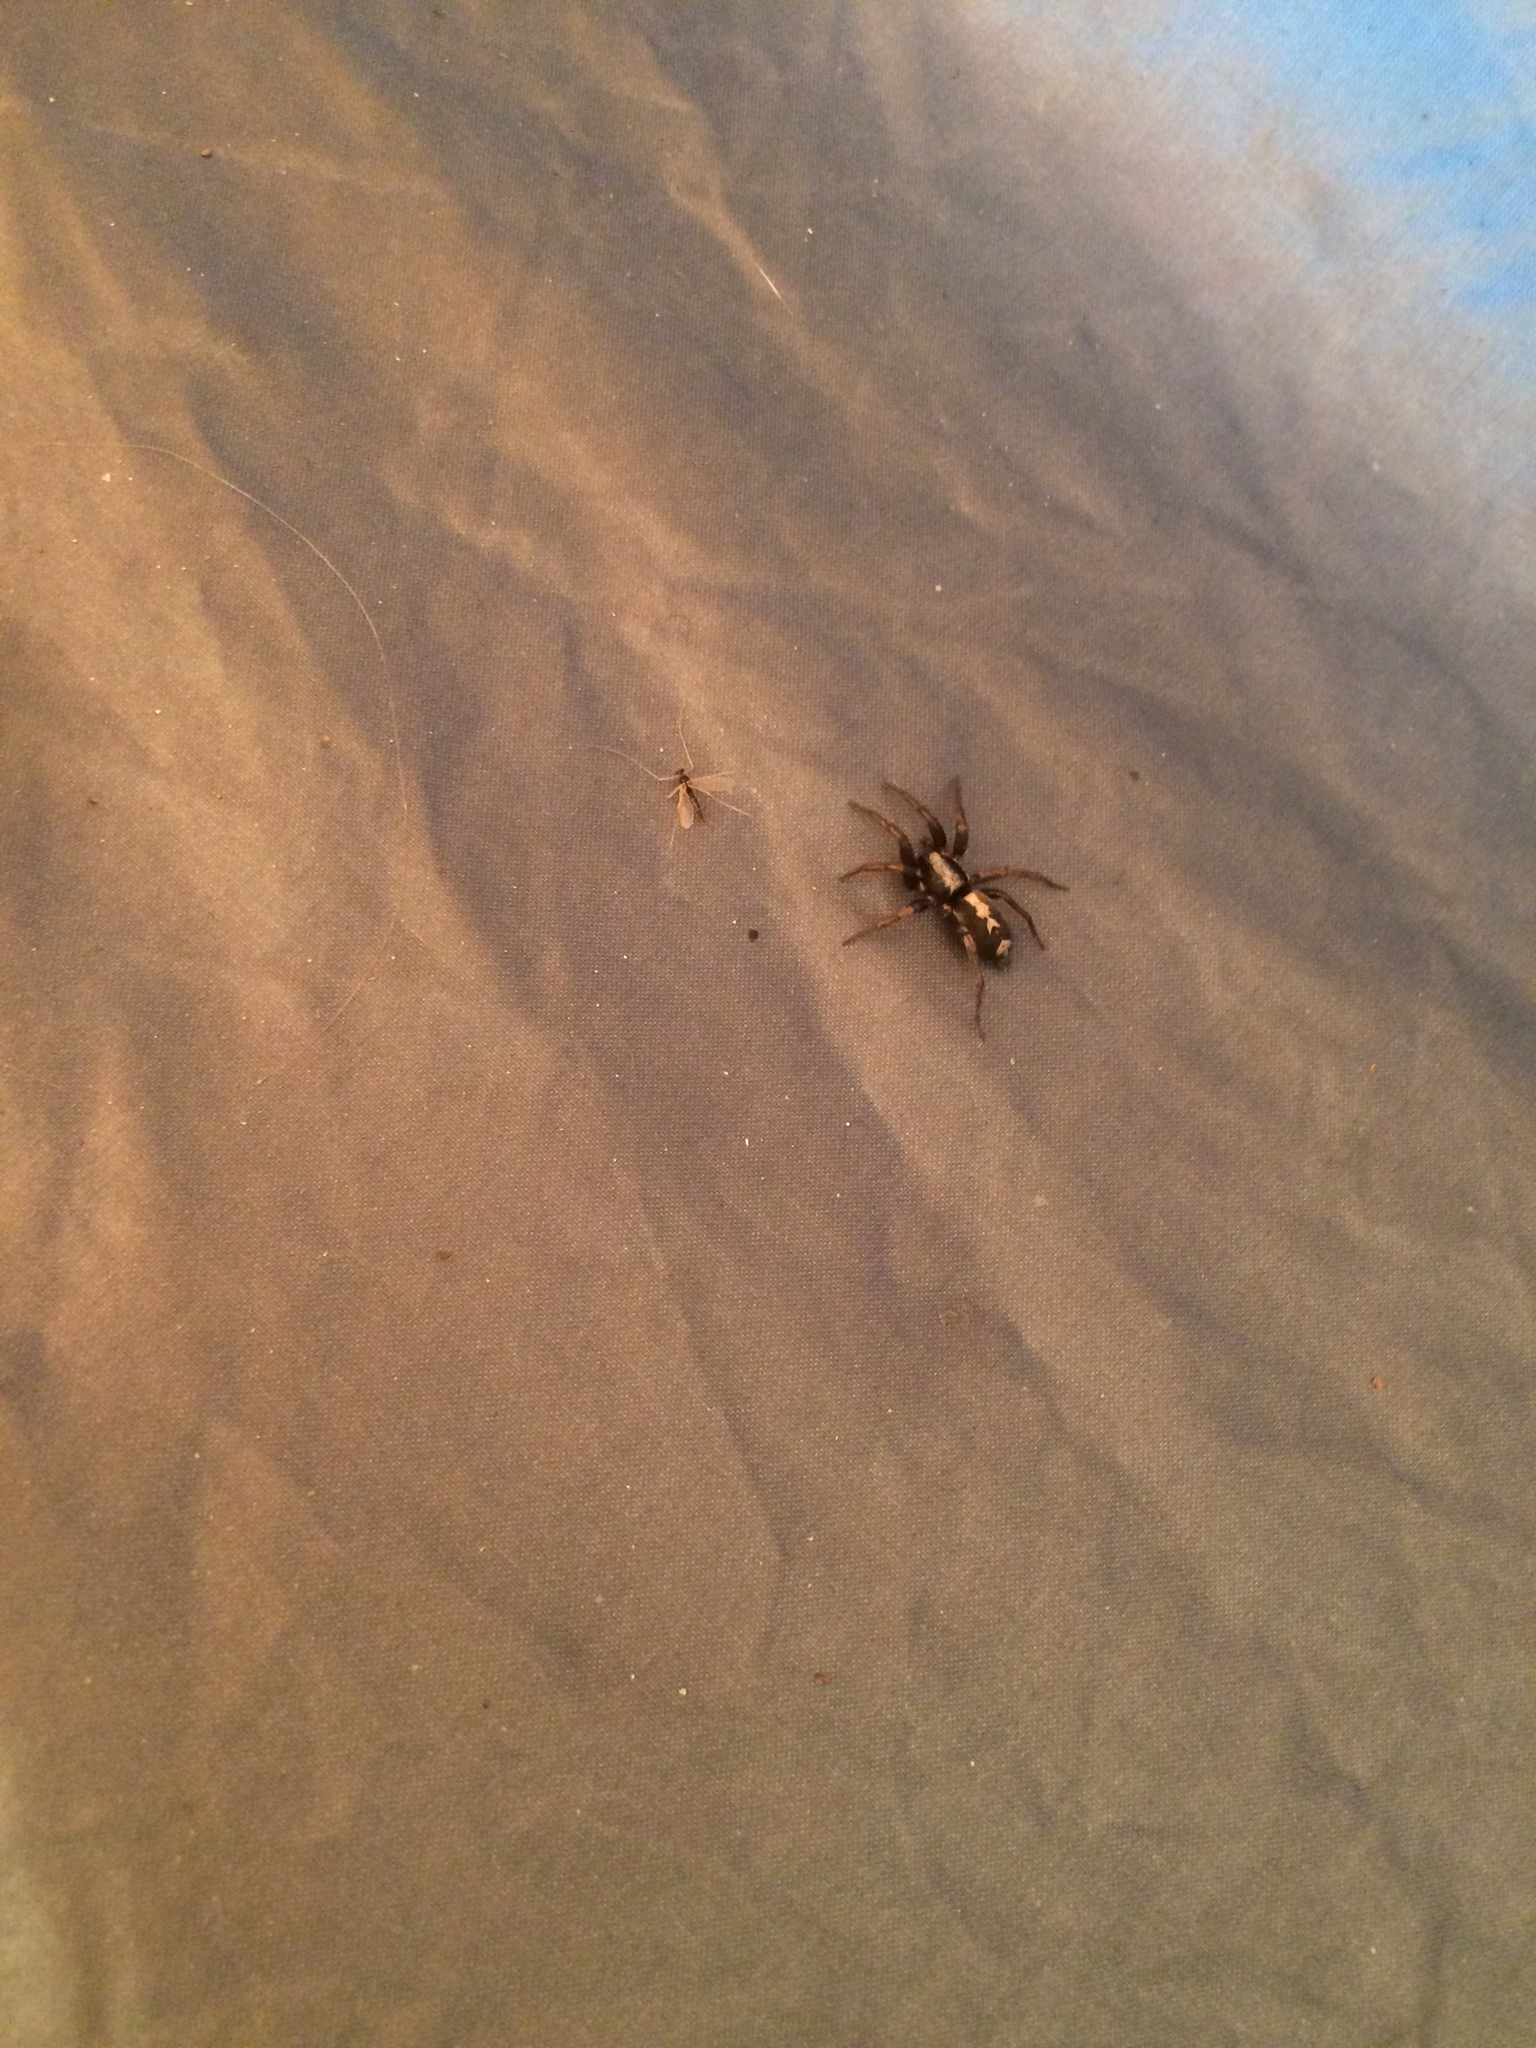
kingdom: Animalia
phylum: Arthropoda
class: Arachnida
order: Araneae
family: Gnaphosidae
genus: Herpyllus
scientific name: Herpyllus ecclesiasticus
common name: Eastern parson spider
